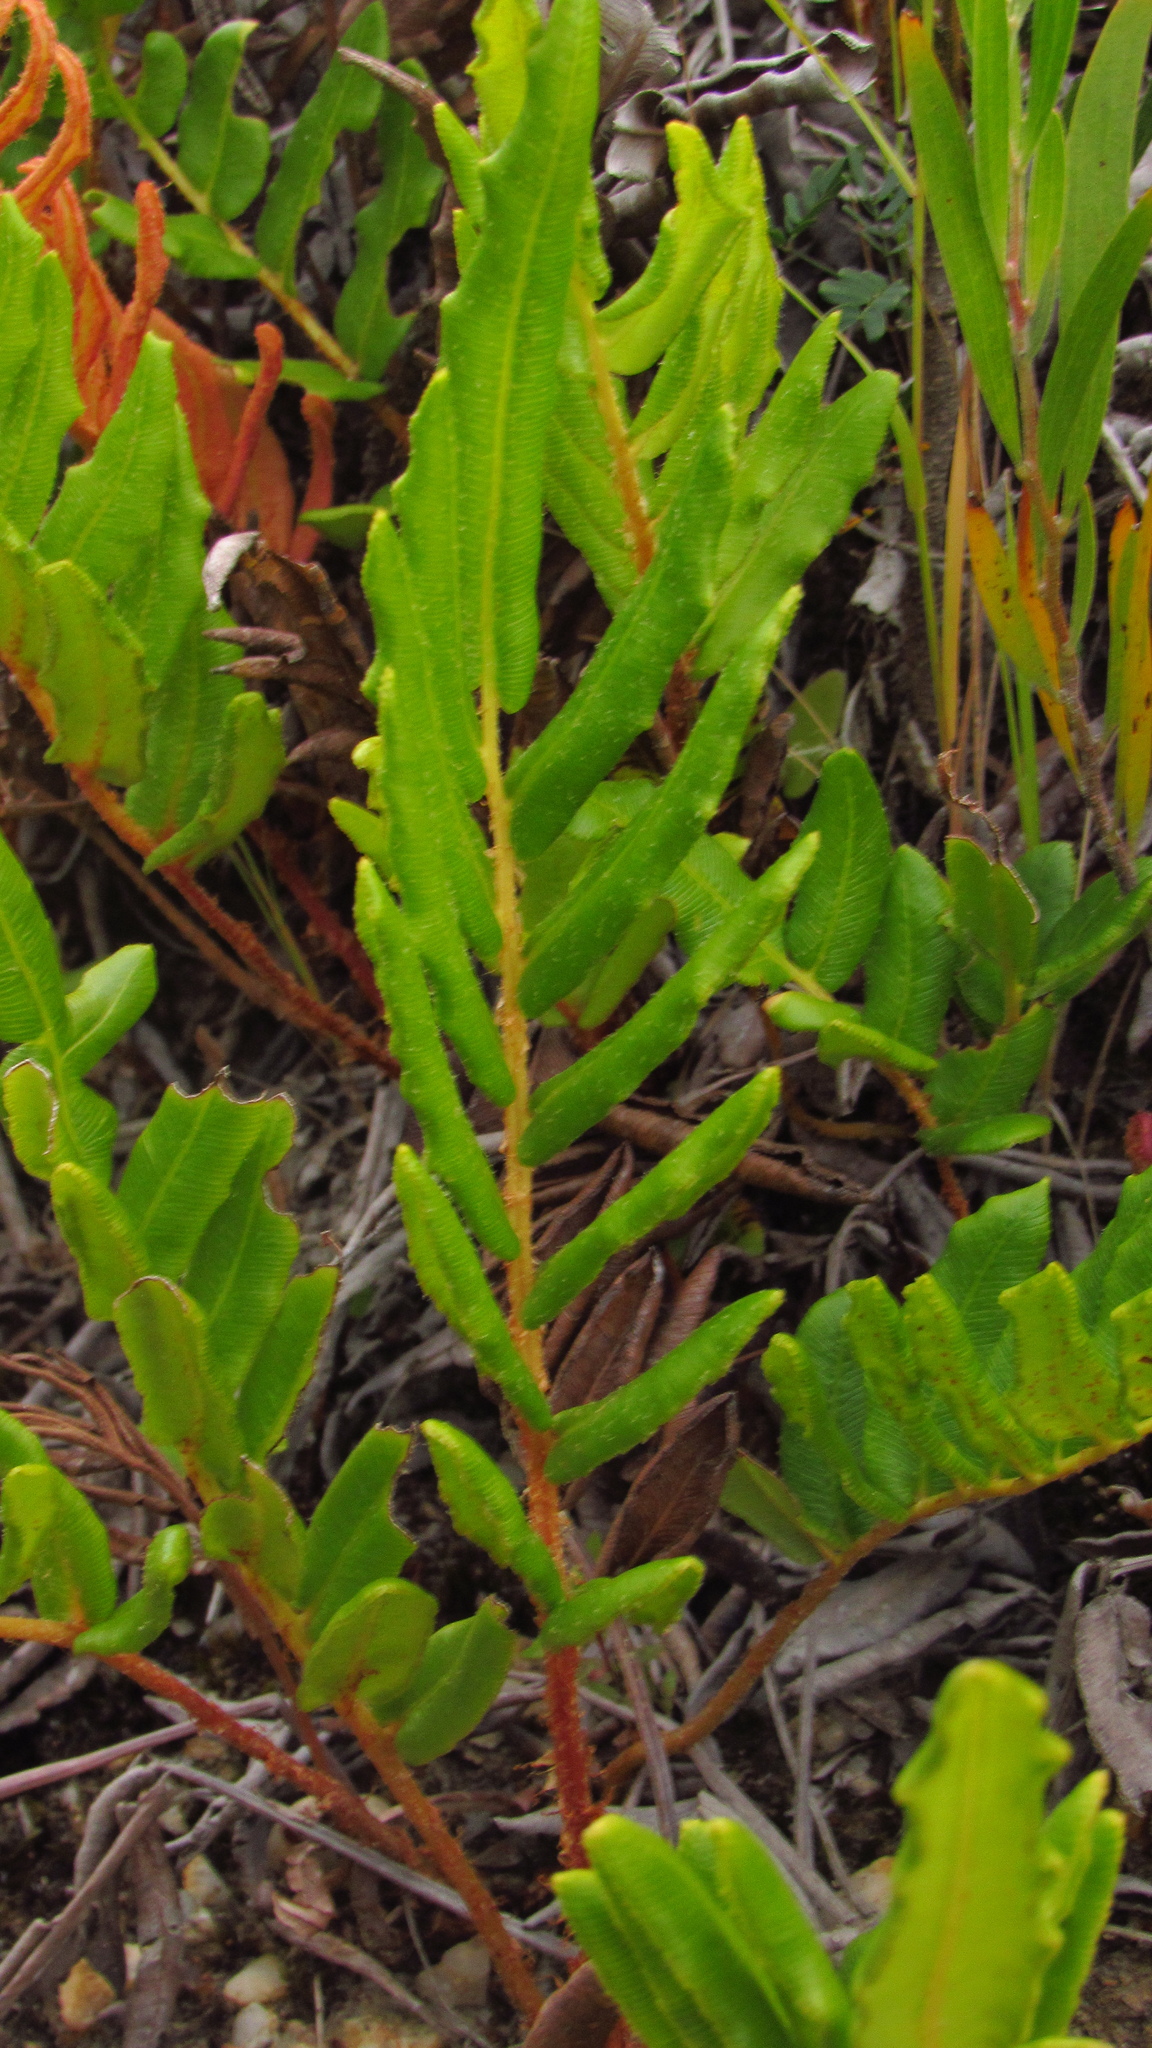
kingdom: Plantae
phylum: Tracheophyta
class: Polypodiopsida
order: Polypodiales
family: Blechnaceae
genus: Parablechnum
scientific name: Parablechnum chilense
